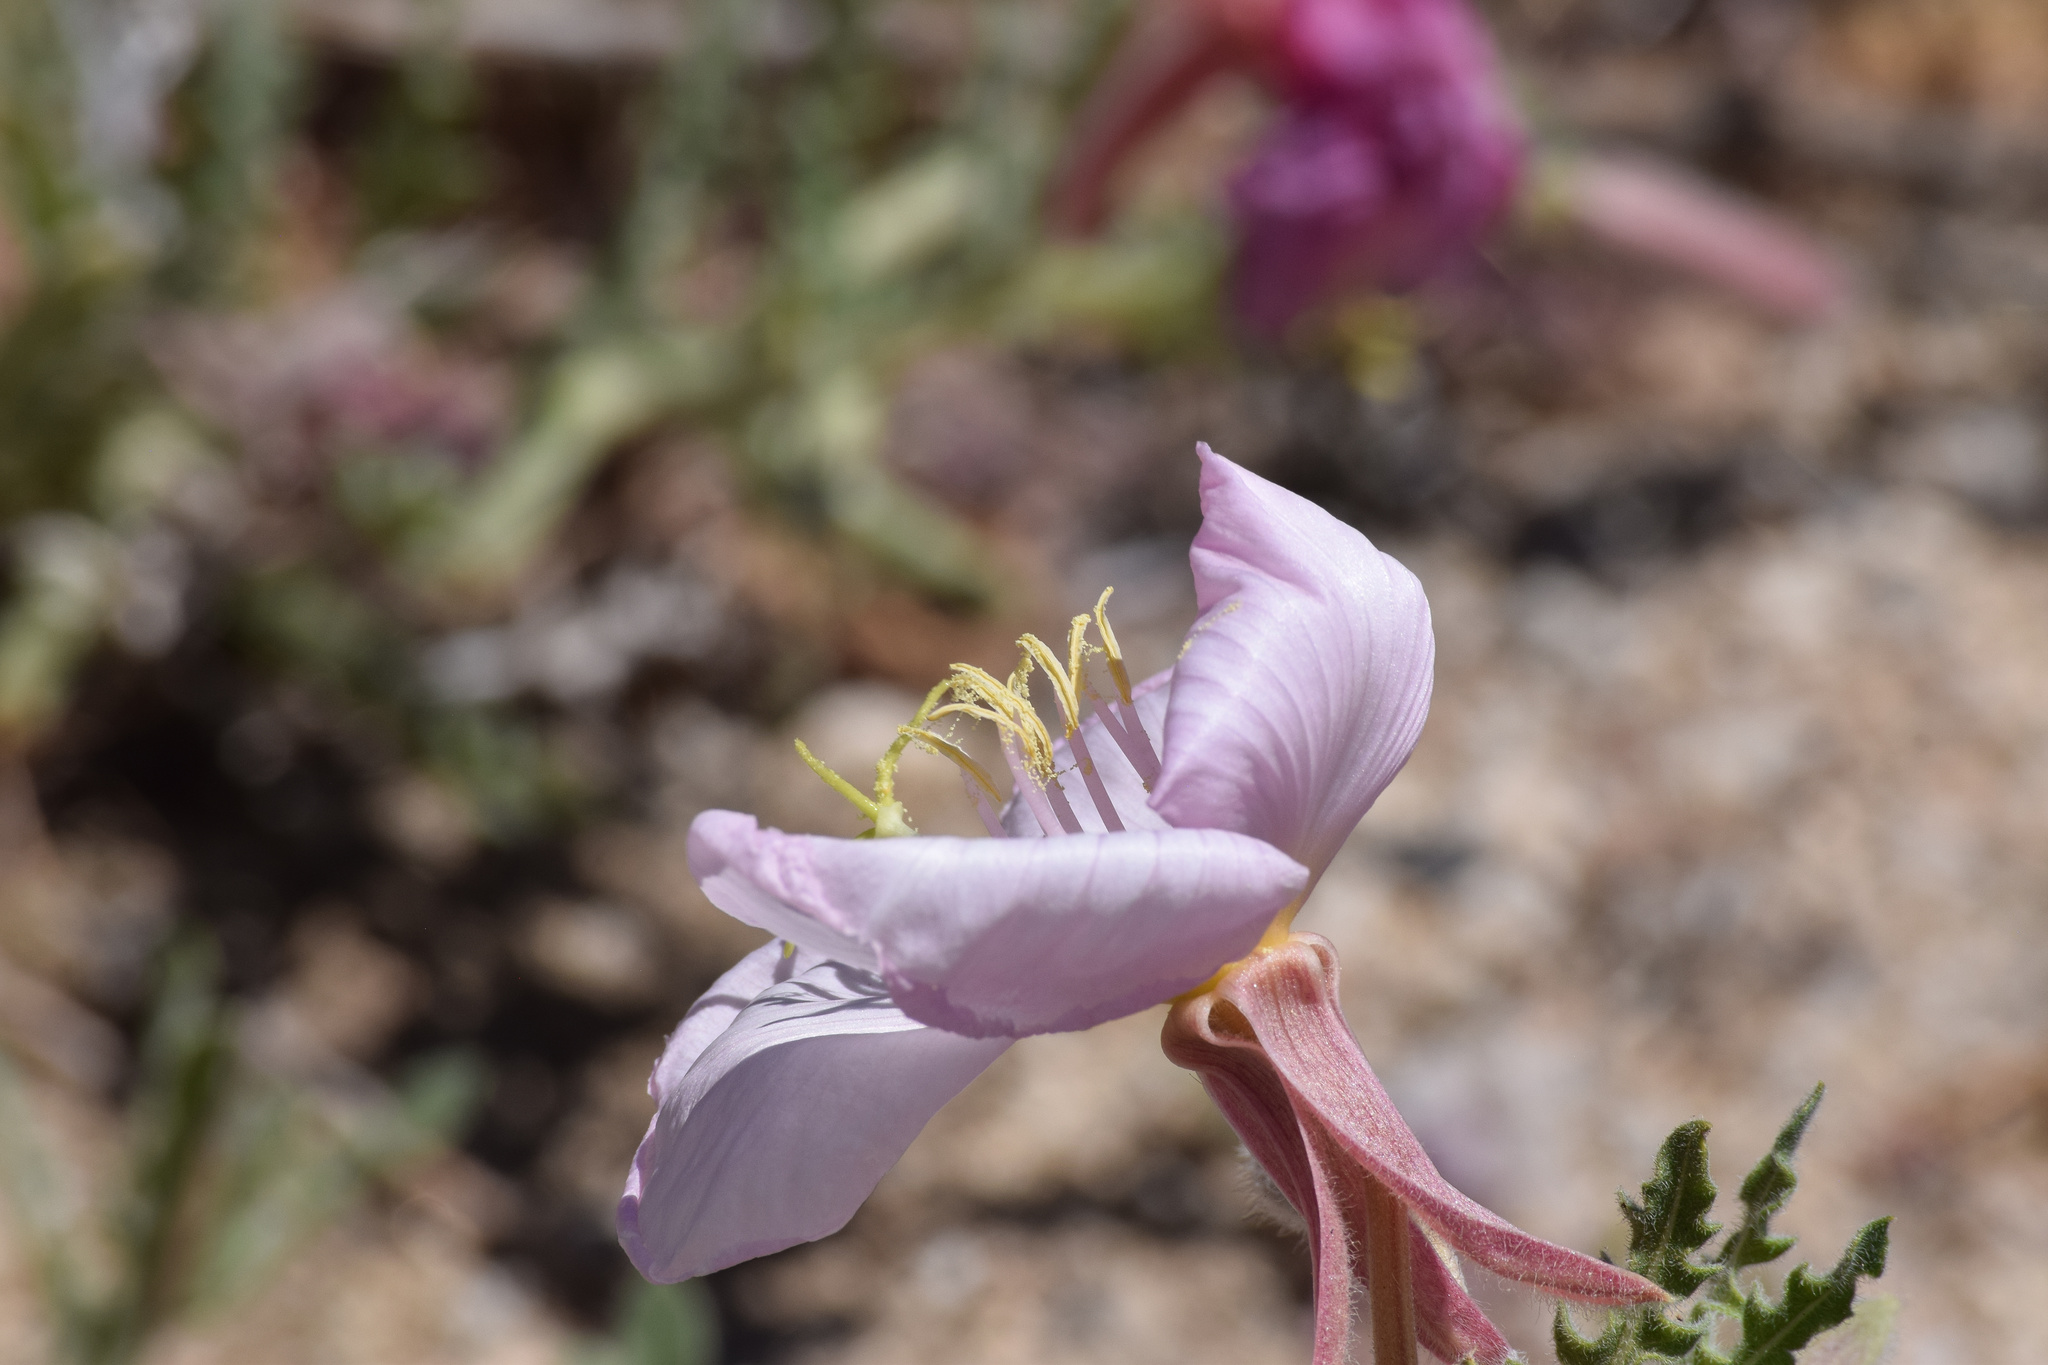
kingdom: Plantae
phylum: Tracheophyta
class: Magnoliopsida
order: Myrtales
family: Onagraceae
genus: Oenothera
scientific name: Oenothera avita
